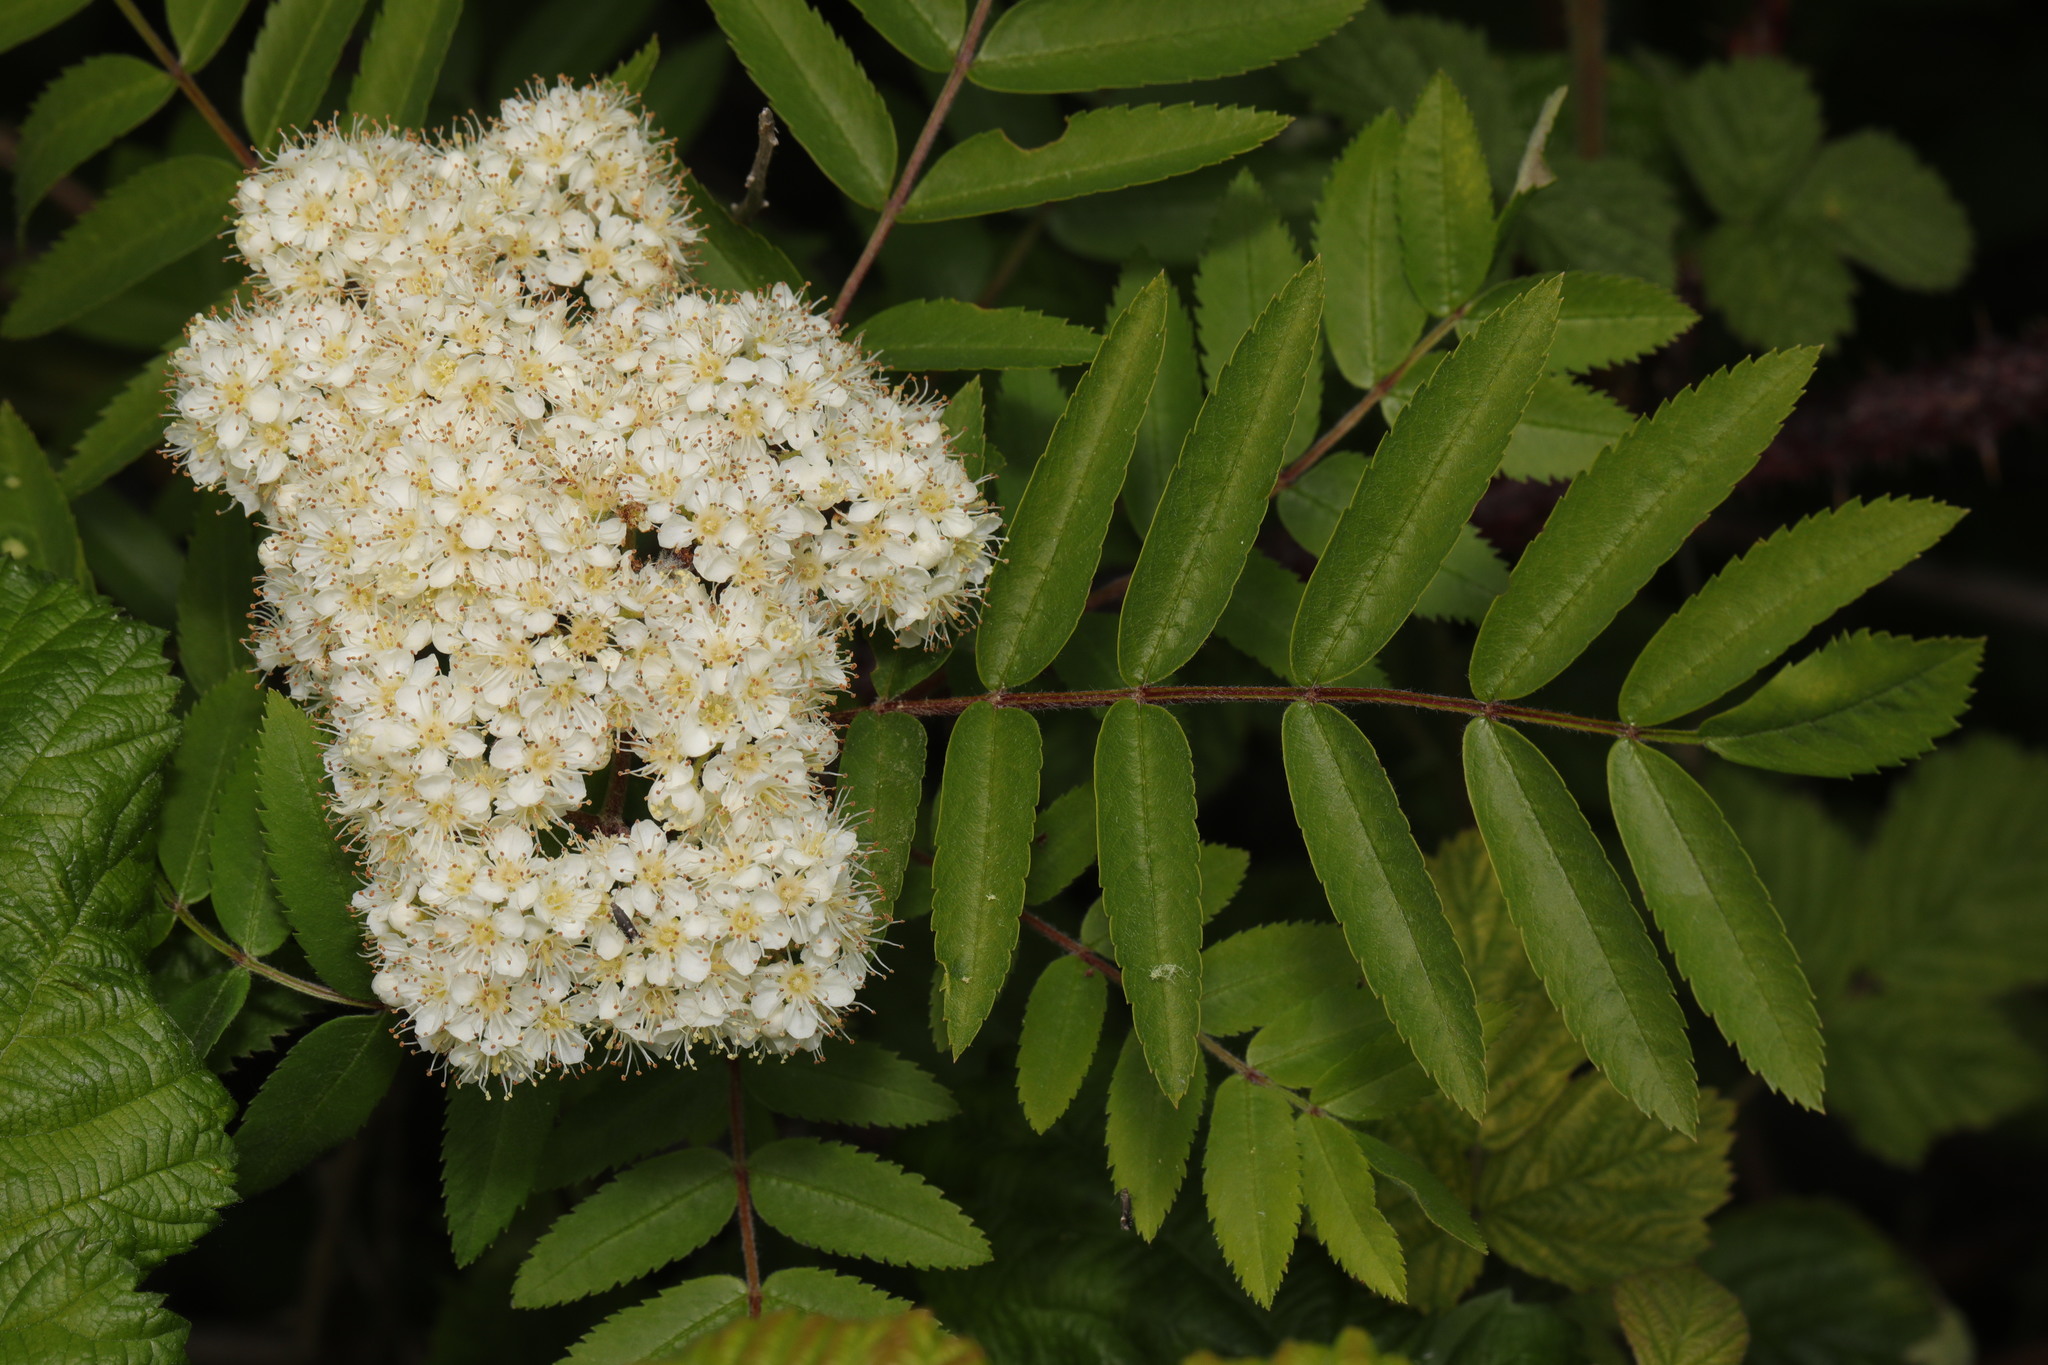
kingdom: Plantae
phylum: Tracheophyta
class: Magnoliopsida
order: Rosales
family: Rosaceae
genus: Sorbus
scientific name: Sorbus aucuparia
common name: Rowan
